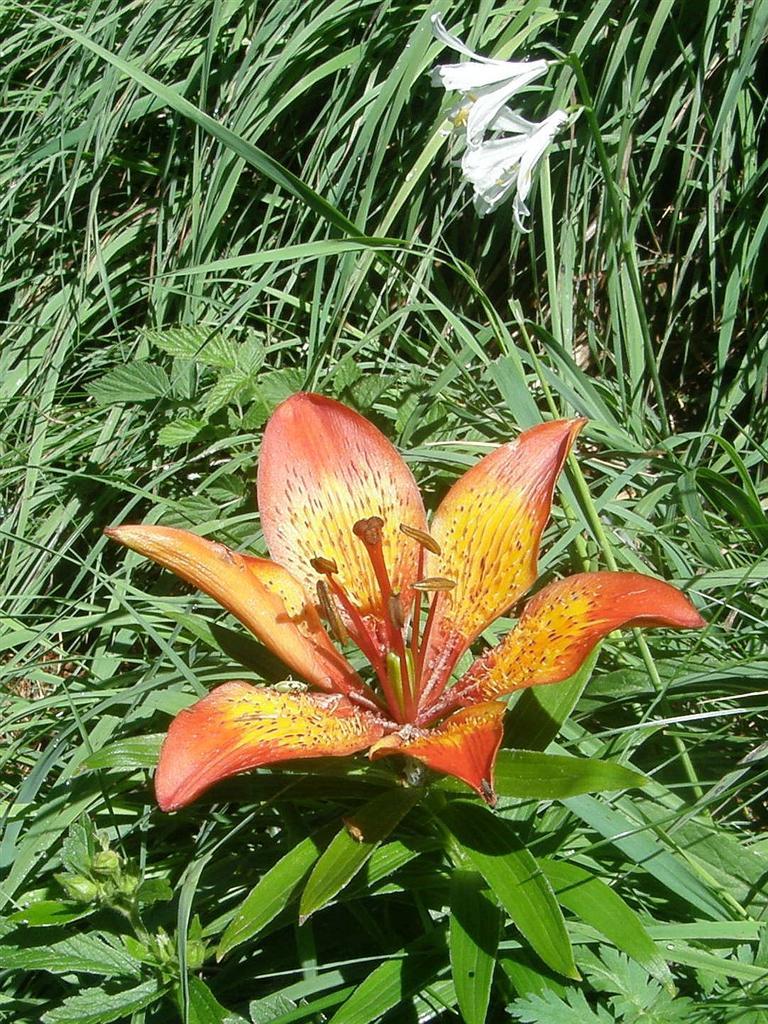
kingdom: Plantae
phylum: Tracheophyta
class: Liliopsida
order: Liliales
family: Liliaceae
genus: Lilium
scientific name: Lilium bulbiferum
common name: Orange lily
